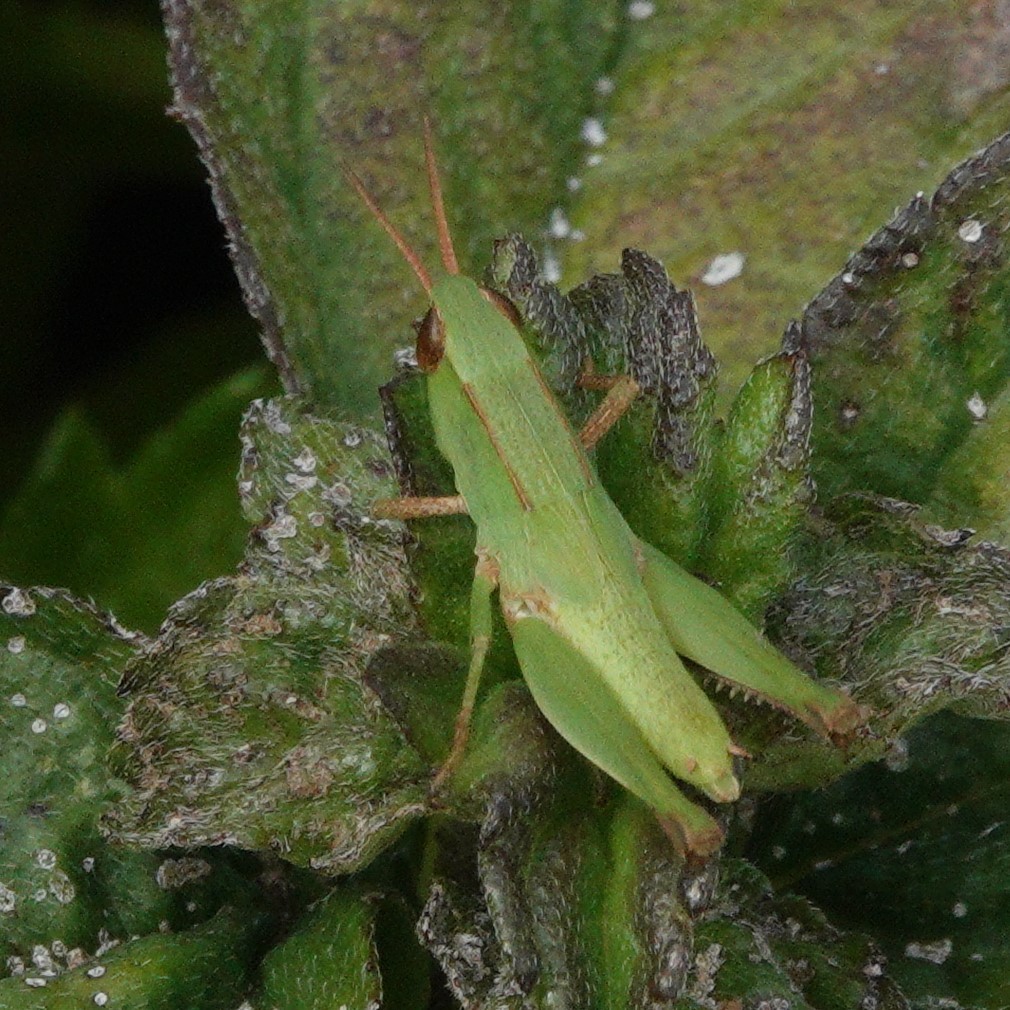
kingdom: Animalia
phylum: Arthropoda
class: Insecta
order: Orthoptera
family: Acrididae
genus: Dichromorpha
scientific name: Dichromorpha viridis
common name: Short-winged green grasshopper
